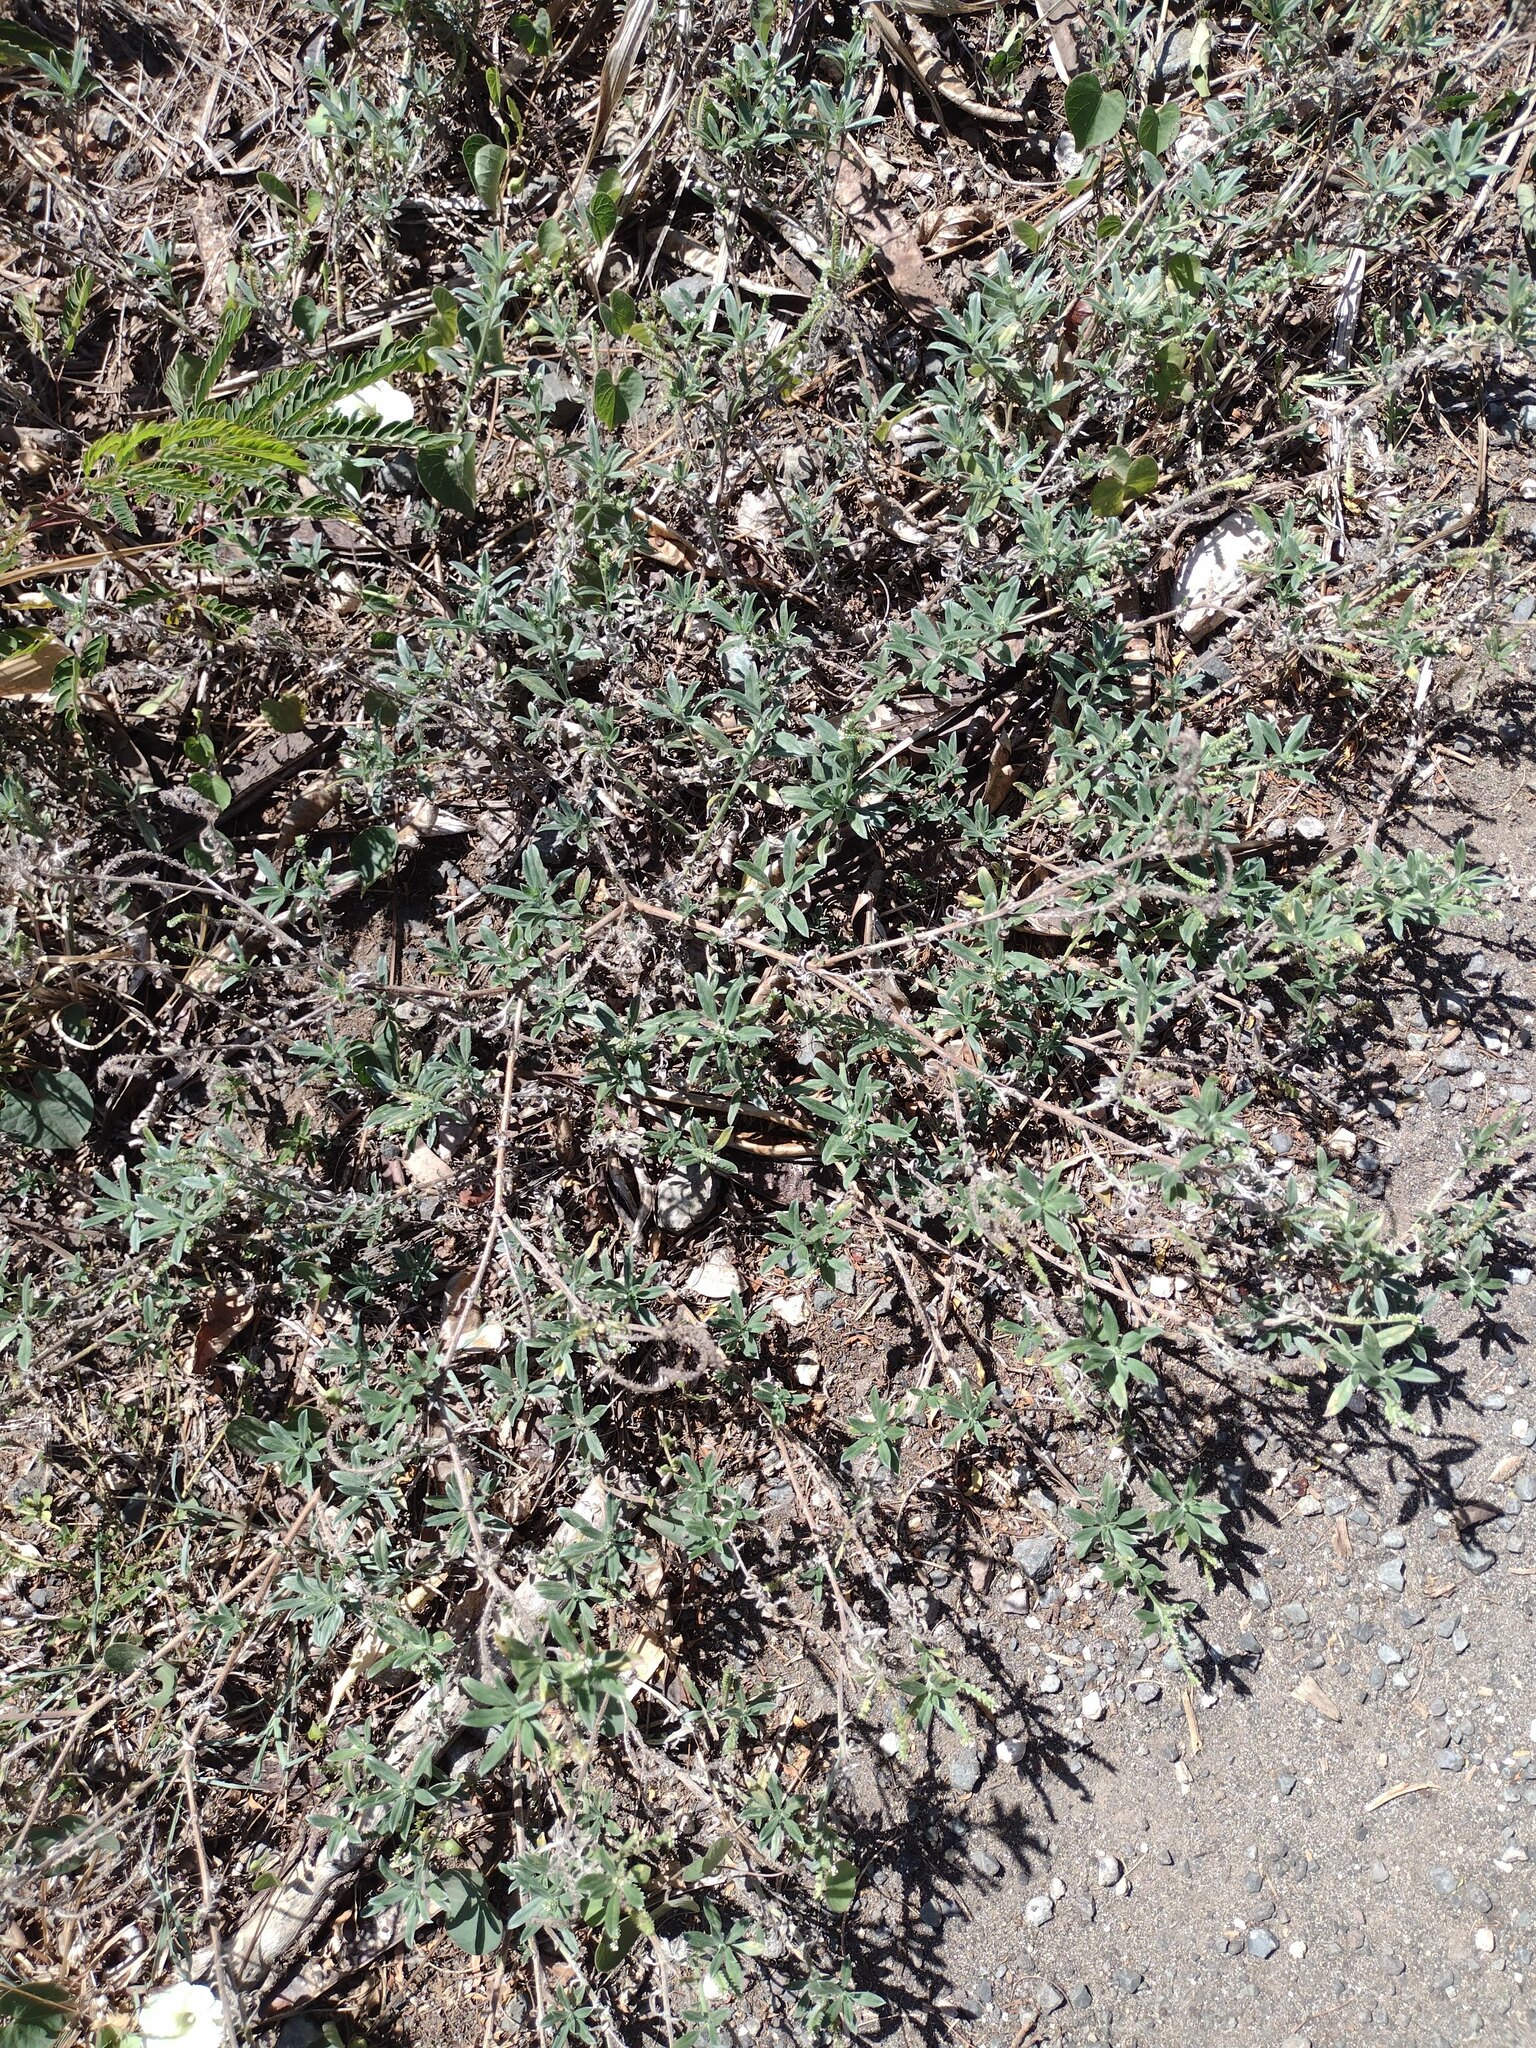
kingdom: Plantae
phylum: Tracheophyta
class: Magnoliopsida
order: Boraginales
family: Heliotropiaceae
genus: Euploca
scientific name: Euploca procumbens
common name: Fourspike heliotrope
